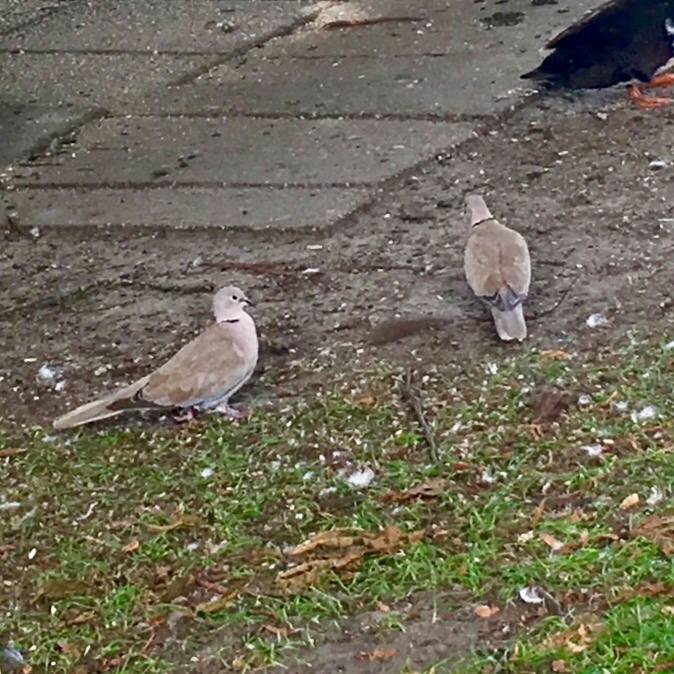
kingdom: Animalia
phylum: Chordata
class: Aves
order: Columbiformes
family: Columbidae
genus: Streptopelia
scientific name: Streptopelia decaocto
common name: Eurasian collared dove
